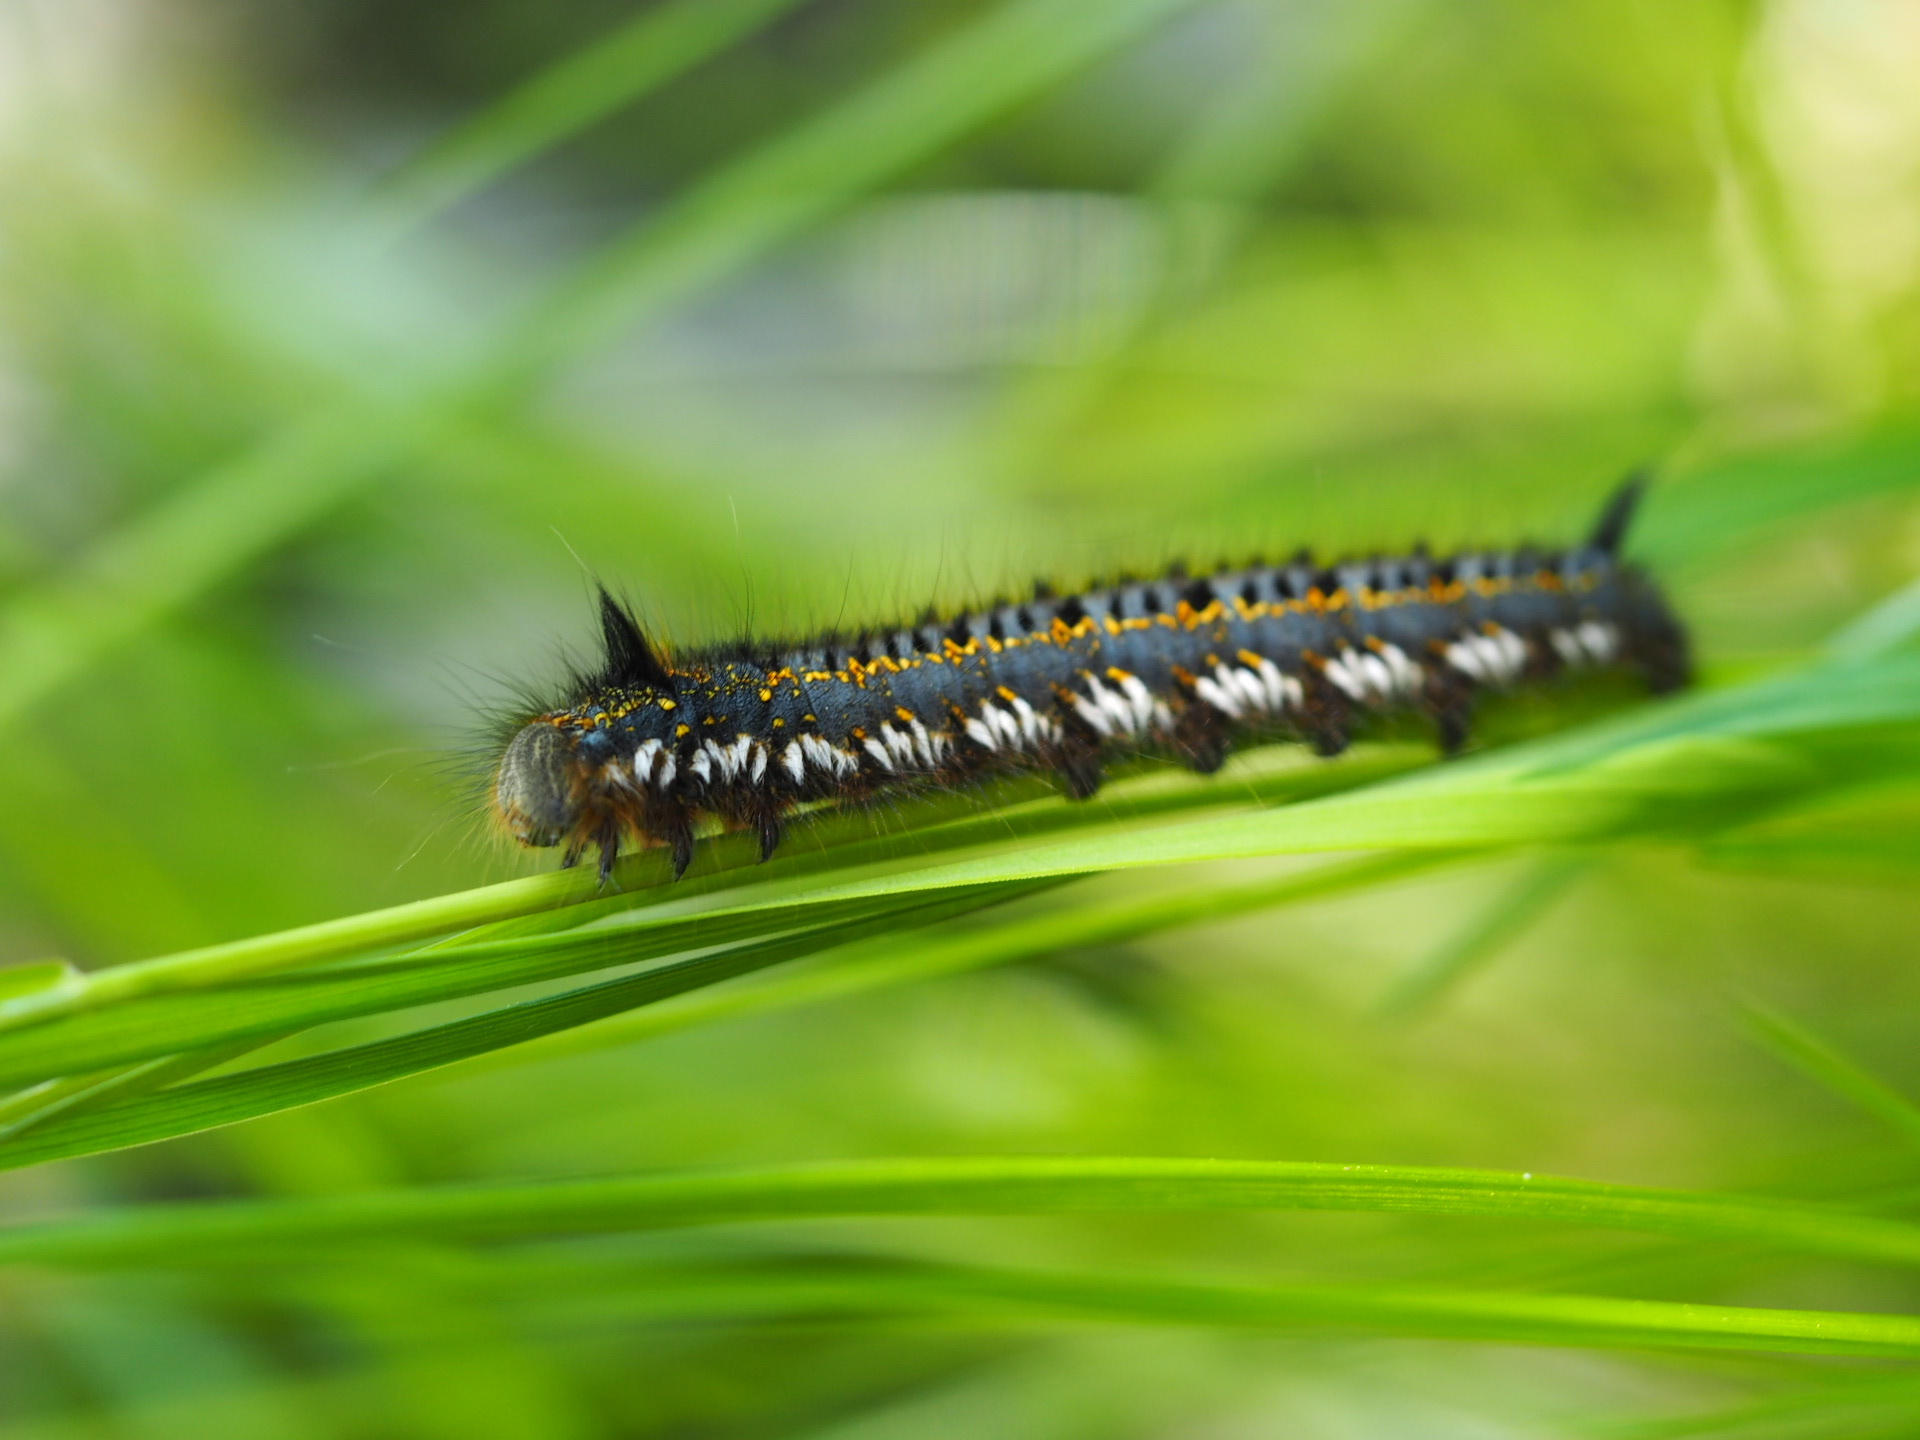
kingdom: Animalia
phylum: Arthropoda
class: Insecta
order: Lepidoptera
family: Lasiocampidae
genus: Euthrix
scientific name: Euthrix potatoria
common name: Drinker
